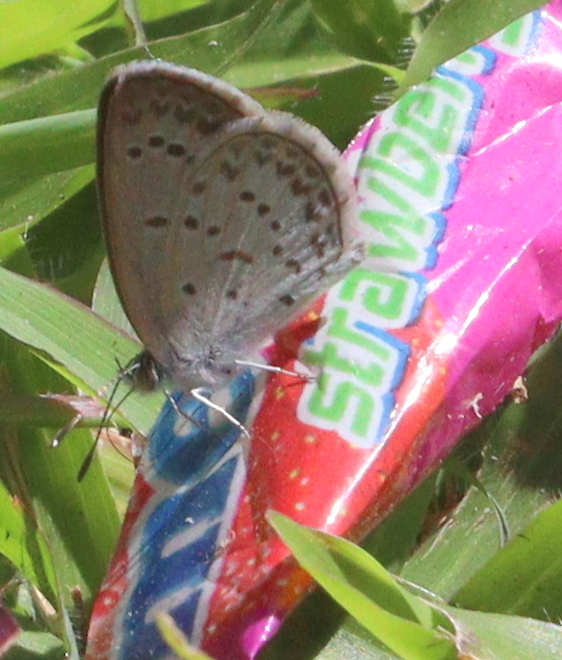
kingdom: Animalia
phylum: Arthropoda
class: Insecta
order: Lepidoptera
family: Lycaenidae
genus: Zizina
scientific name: Zizina otis
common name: Lesser grass blue
